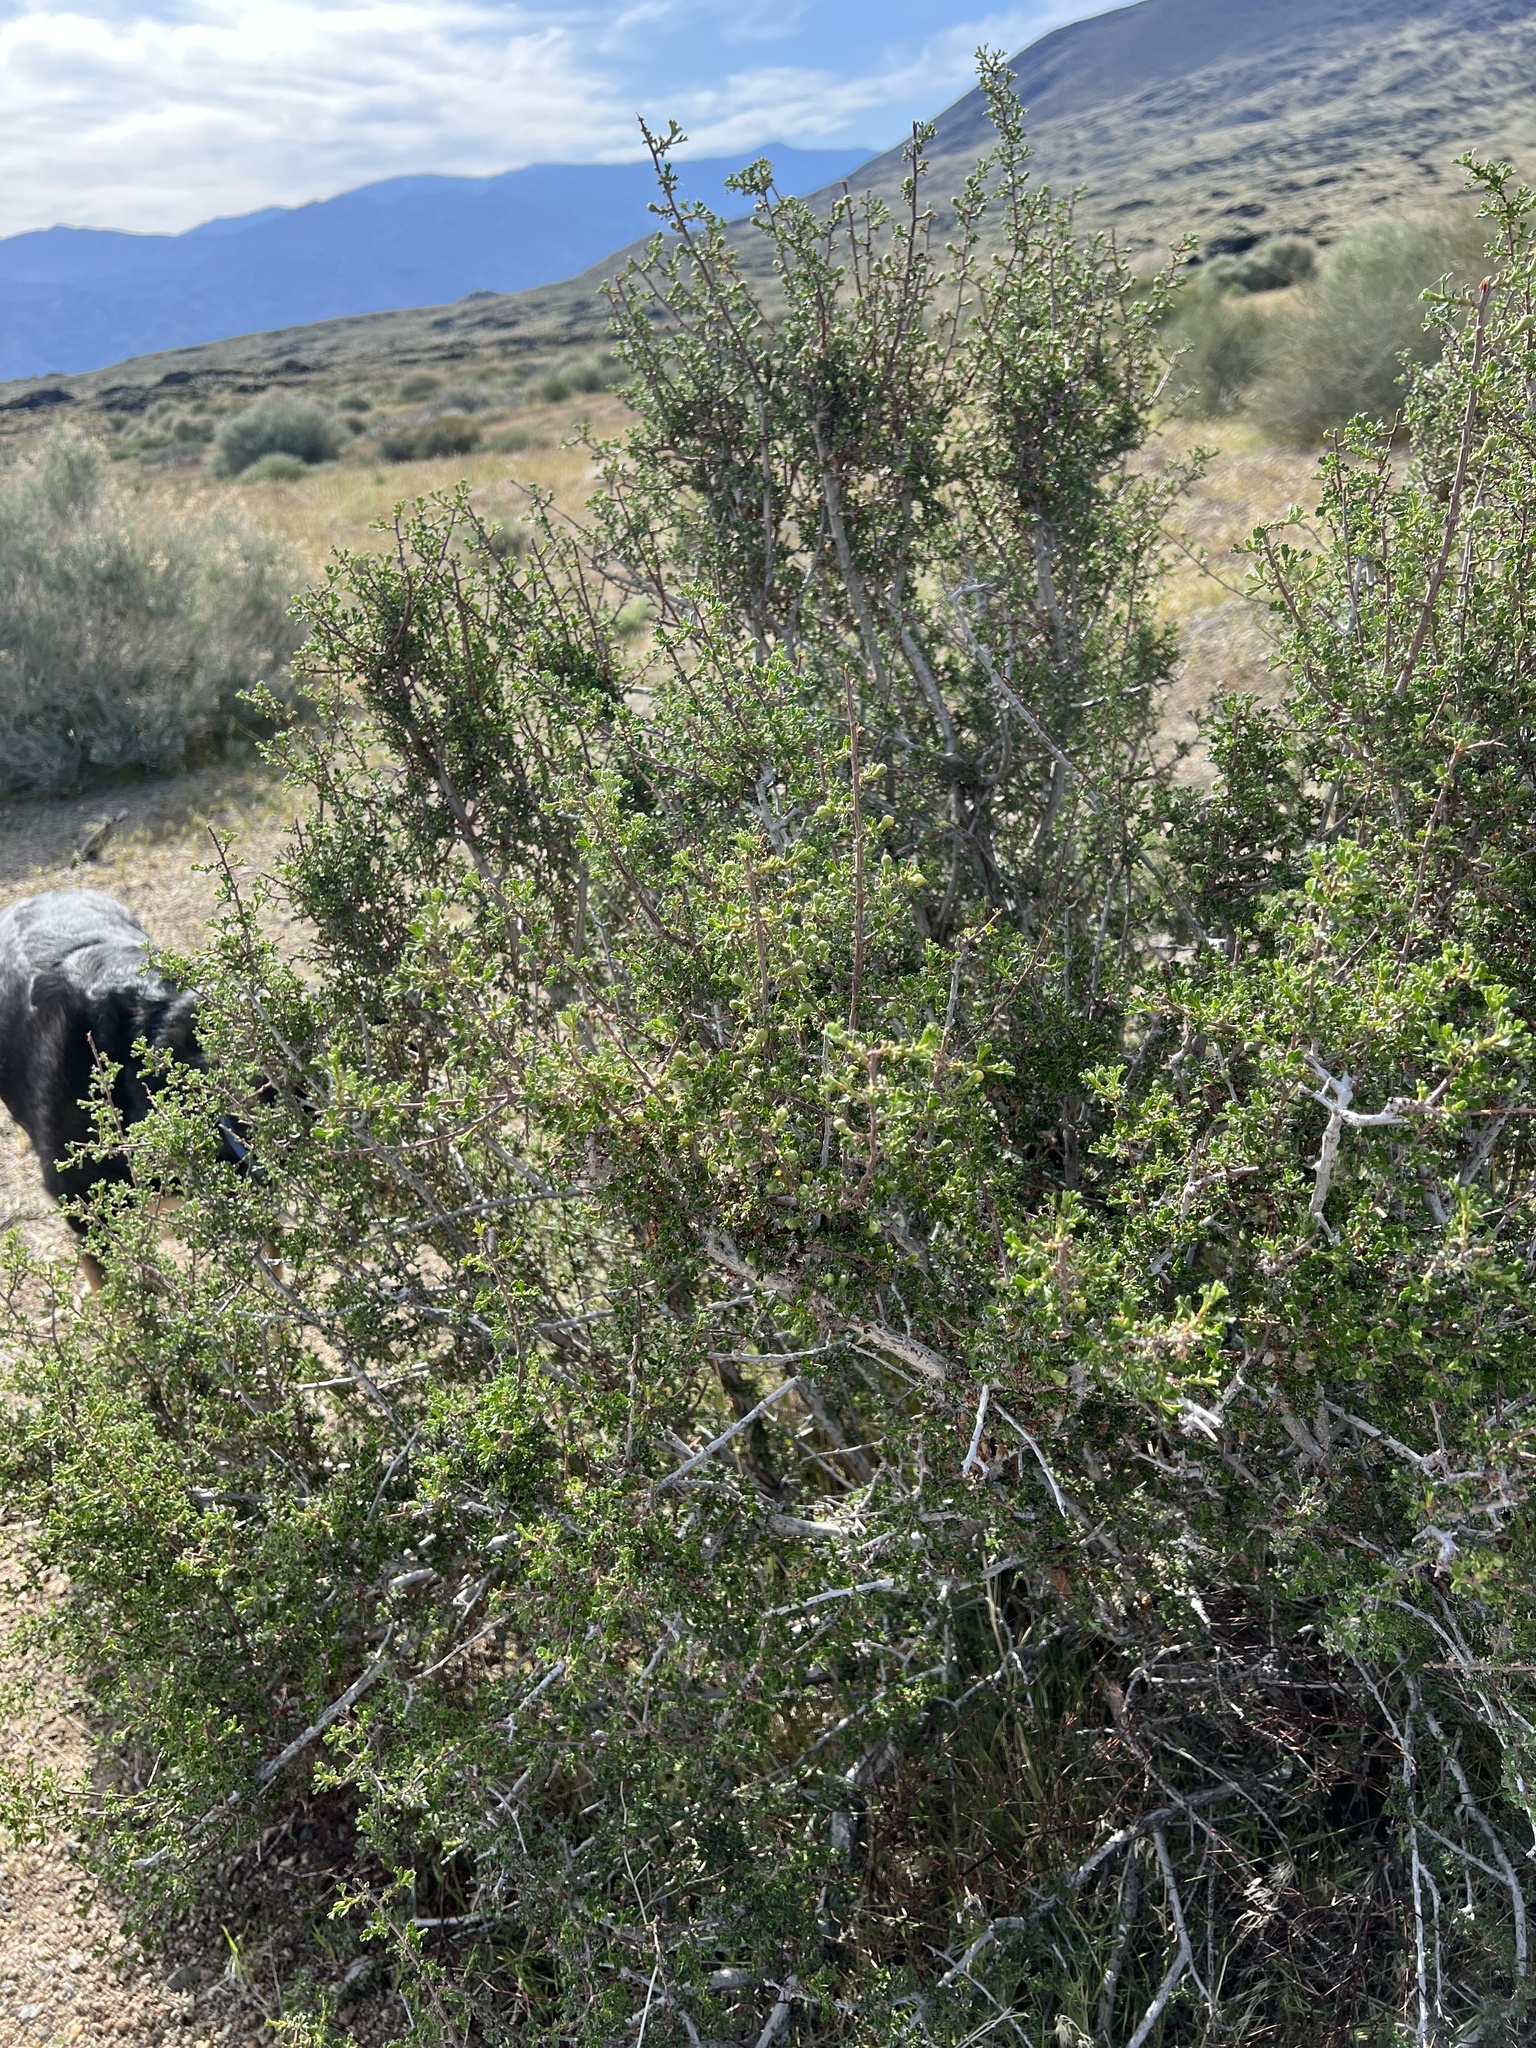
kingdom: Plantae
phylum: Tracheophyta
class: Magnoliopsida
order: Rosales
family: Rosaceae
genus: Purshia
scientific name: Purshia glandulosa
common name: Desert bitterbrush
